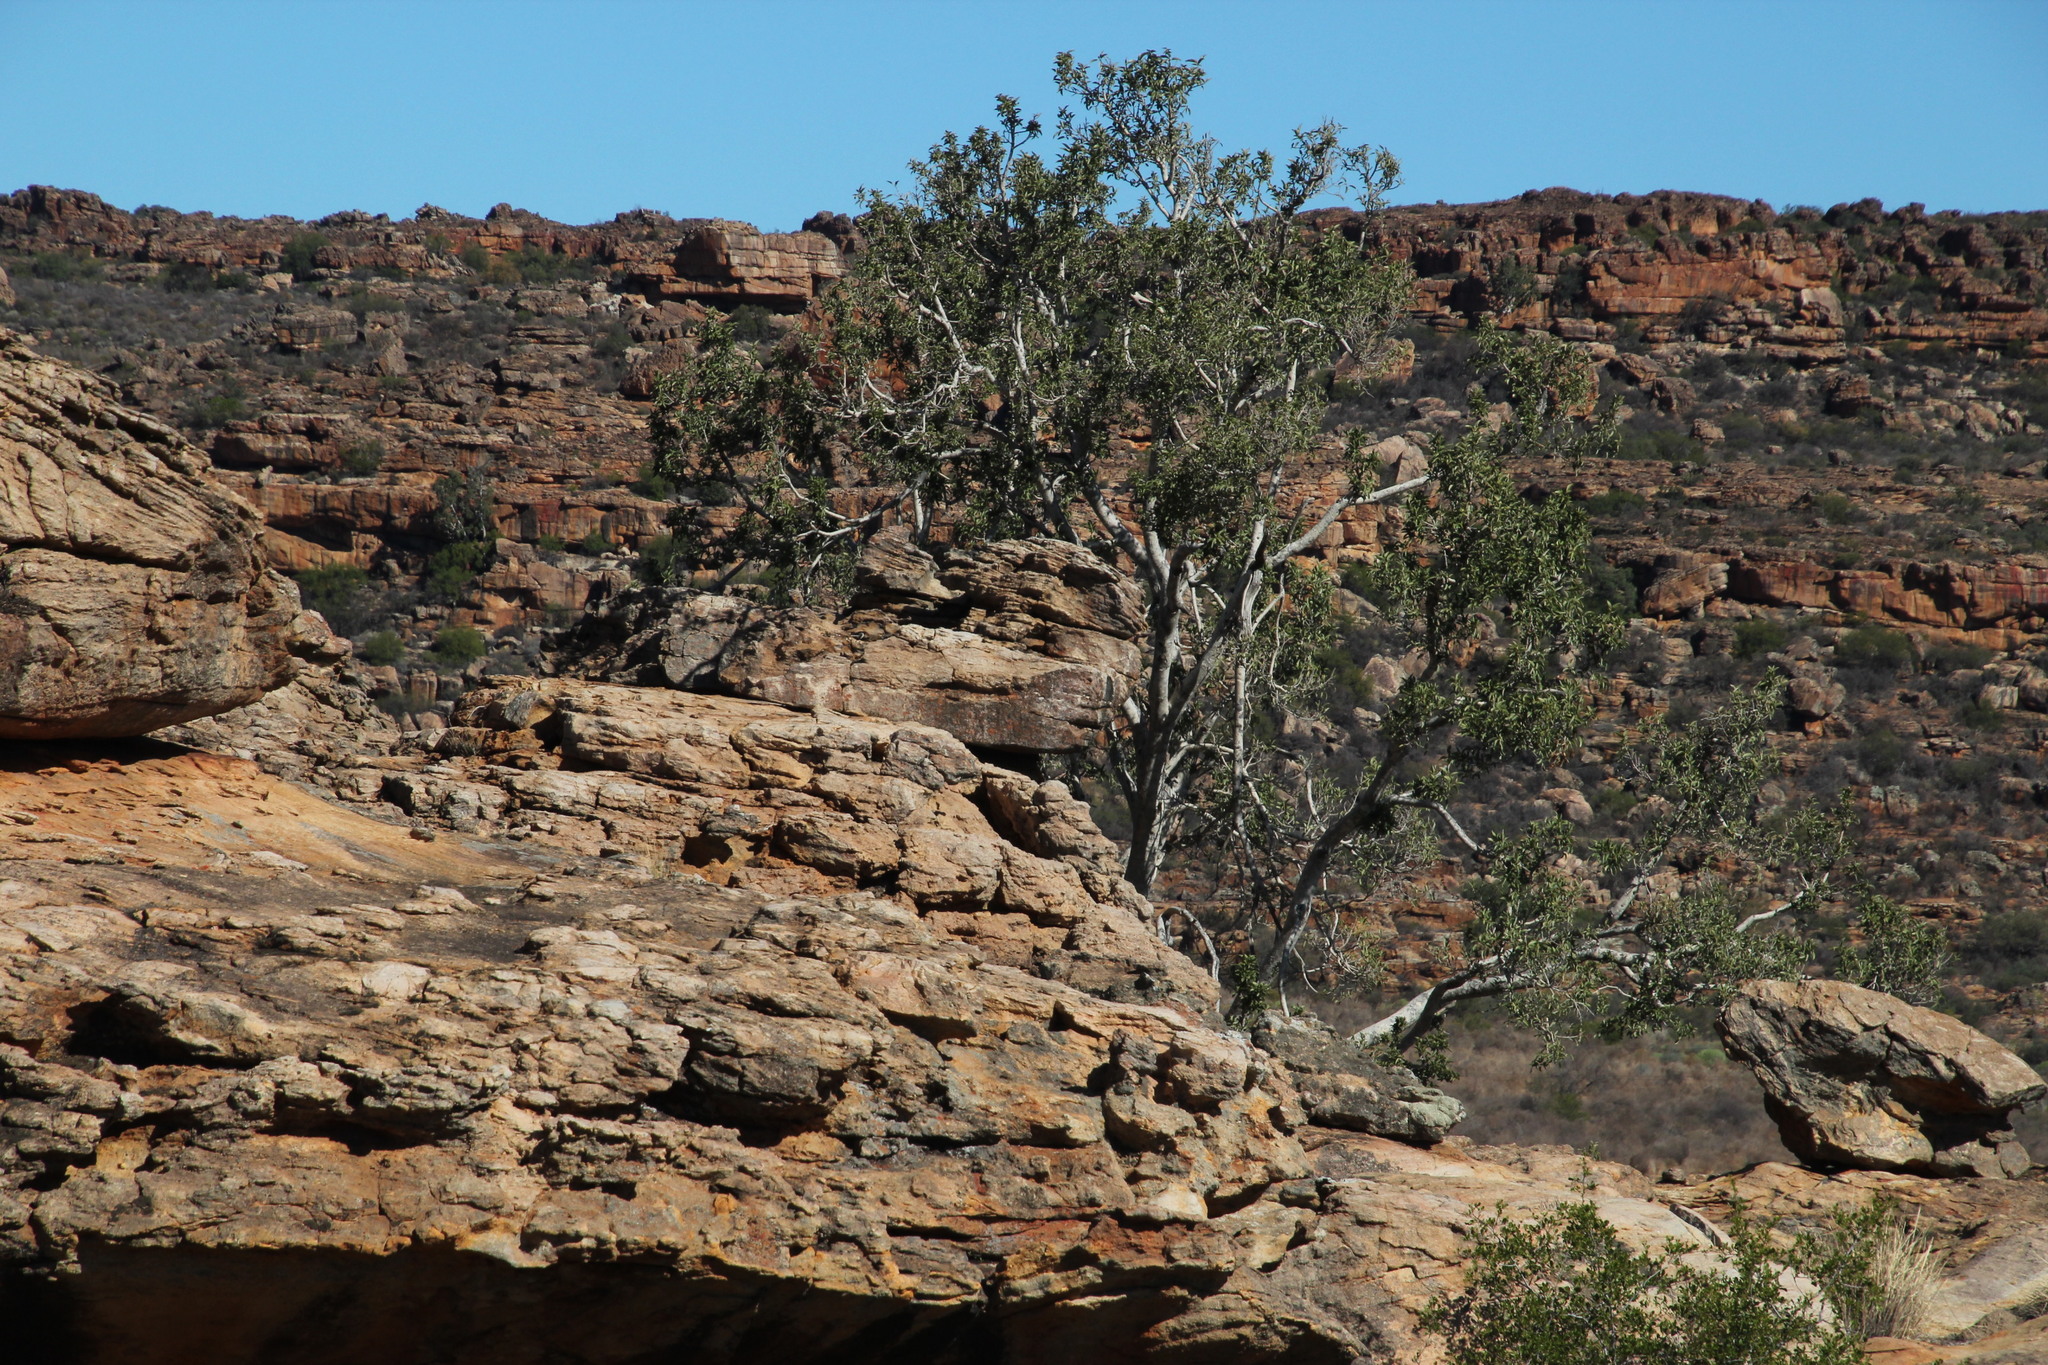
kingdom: Plantae
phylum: Tracheophyta
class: Magnoliopsida
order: Rosales
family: Moraceae
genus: Ficus
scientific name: Ficus cordata
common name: Namaqua rock fig
